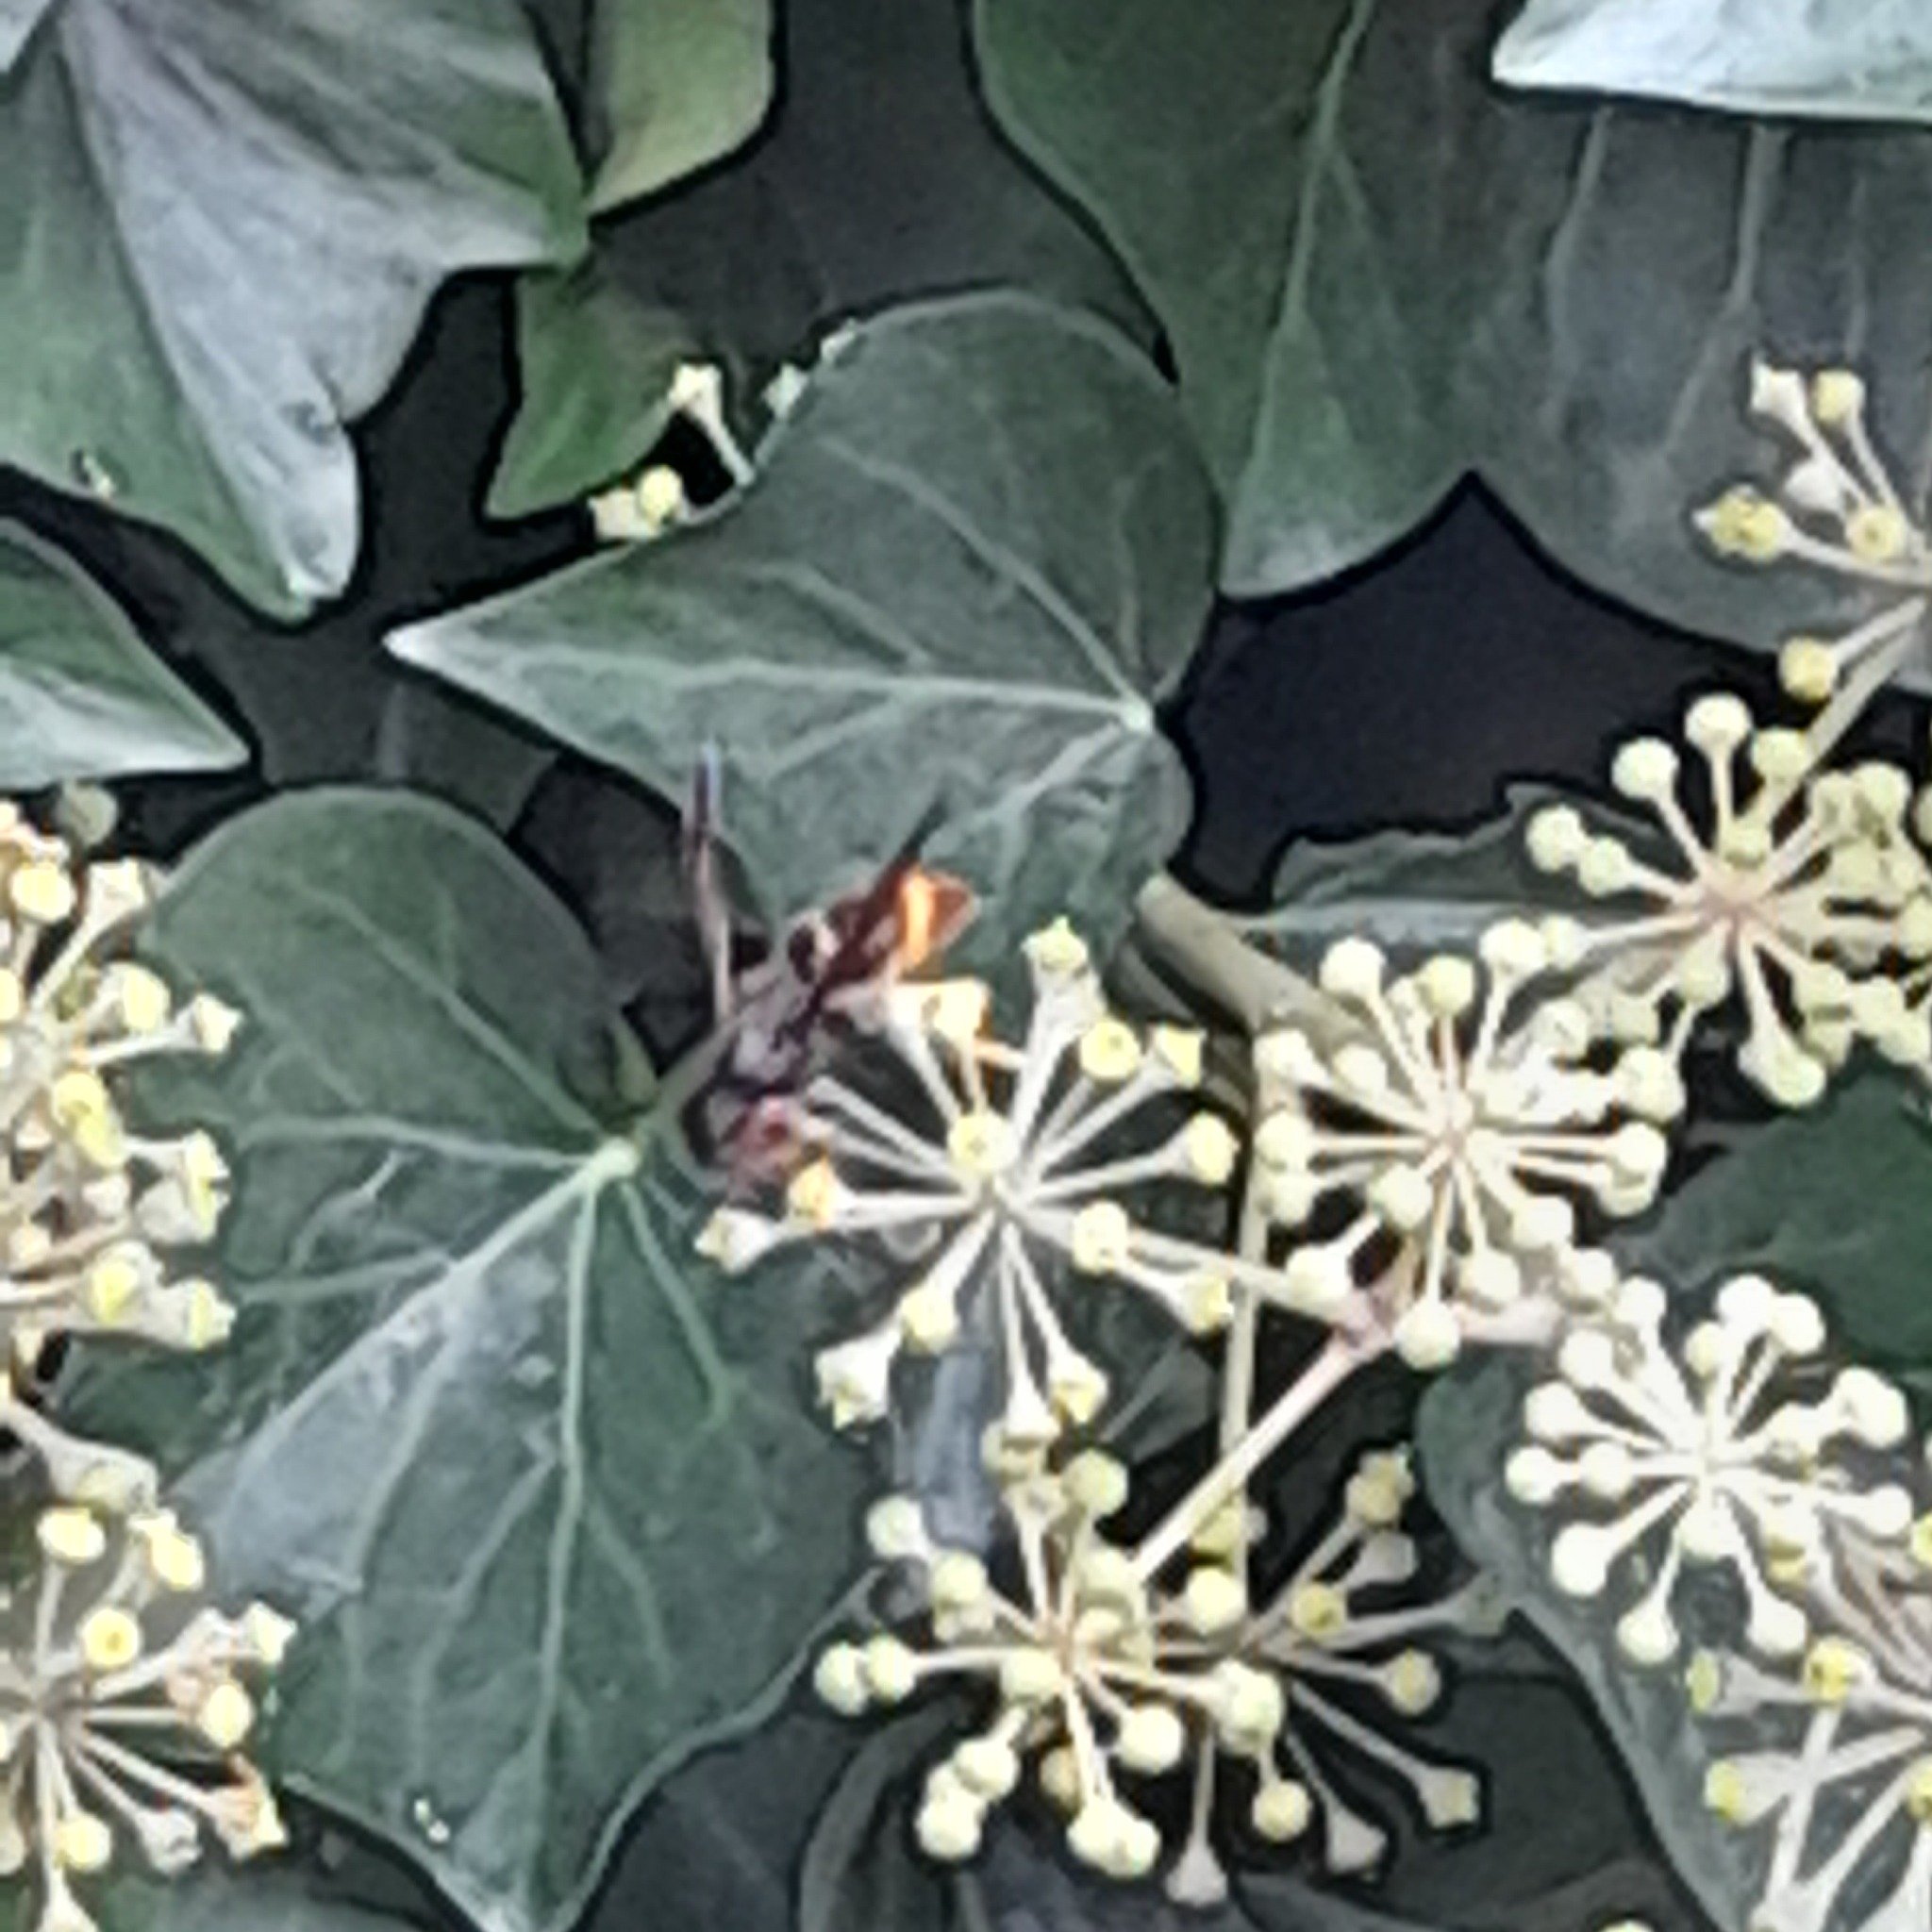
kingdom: Animalia
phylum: Arthropoda
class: Insecta
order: Hymenoptera
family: Vespidae
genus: Vespa
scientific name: Vespa velutina
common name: Asian hornet
